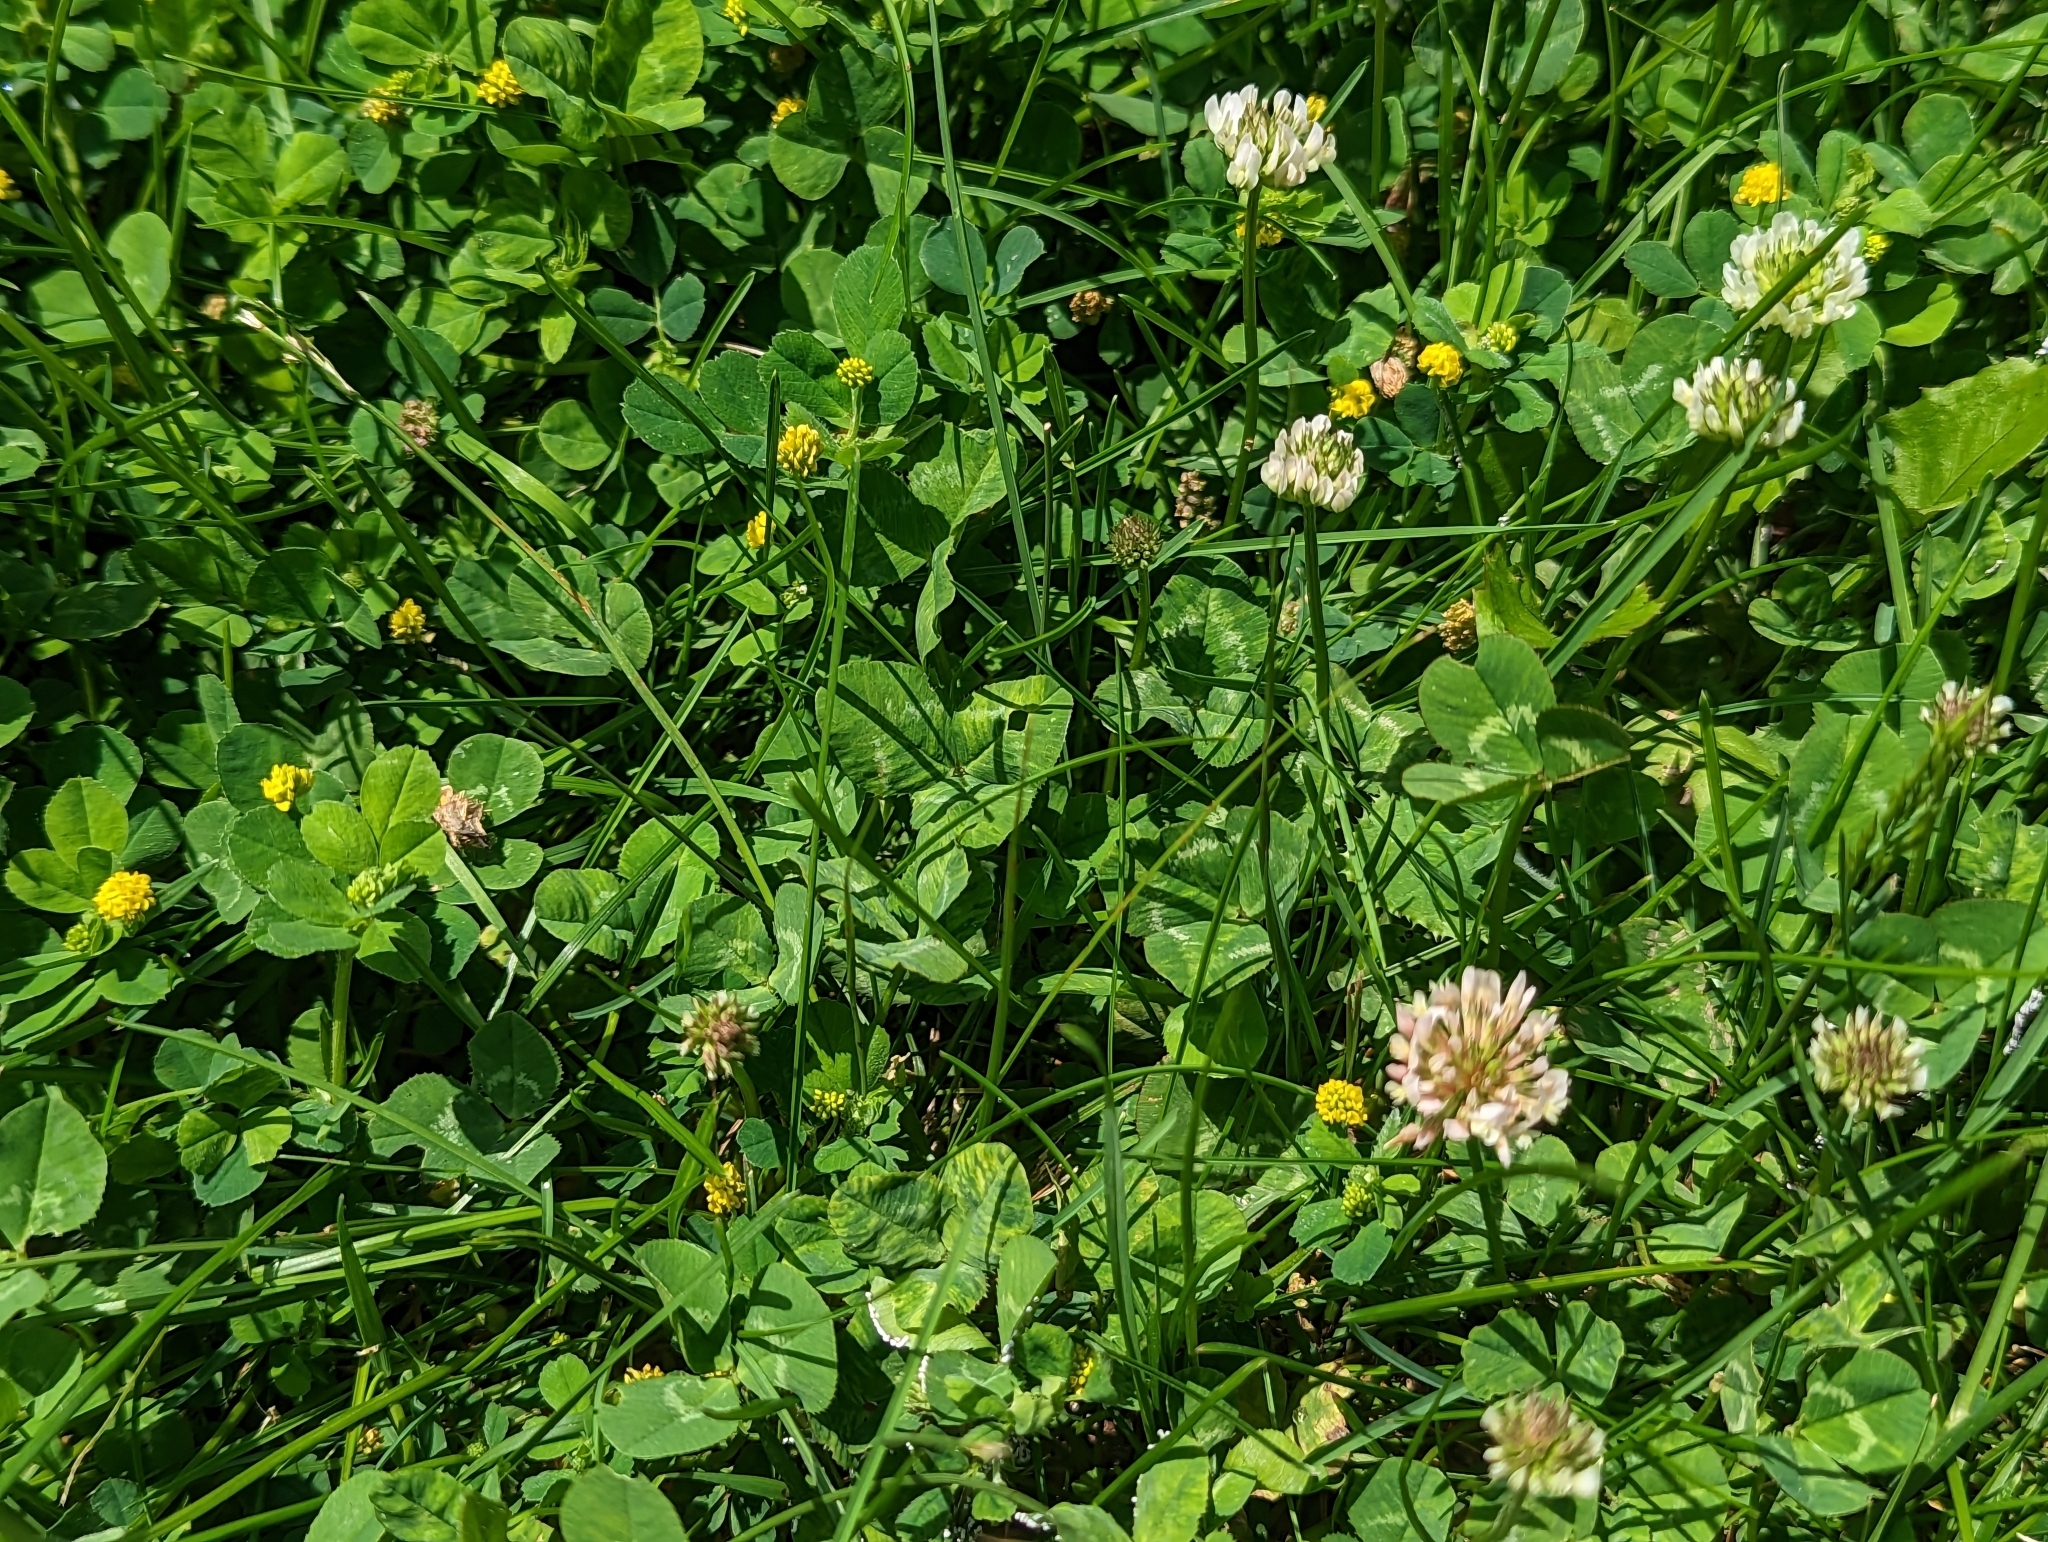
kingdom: Plantae
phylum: Tracheophyta
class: Magnoliopsida
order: Fabales
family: Fabaceae
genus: Trifolium
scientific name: Trifolium repens
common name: White clover
